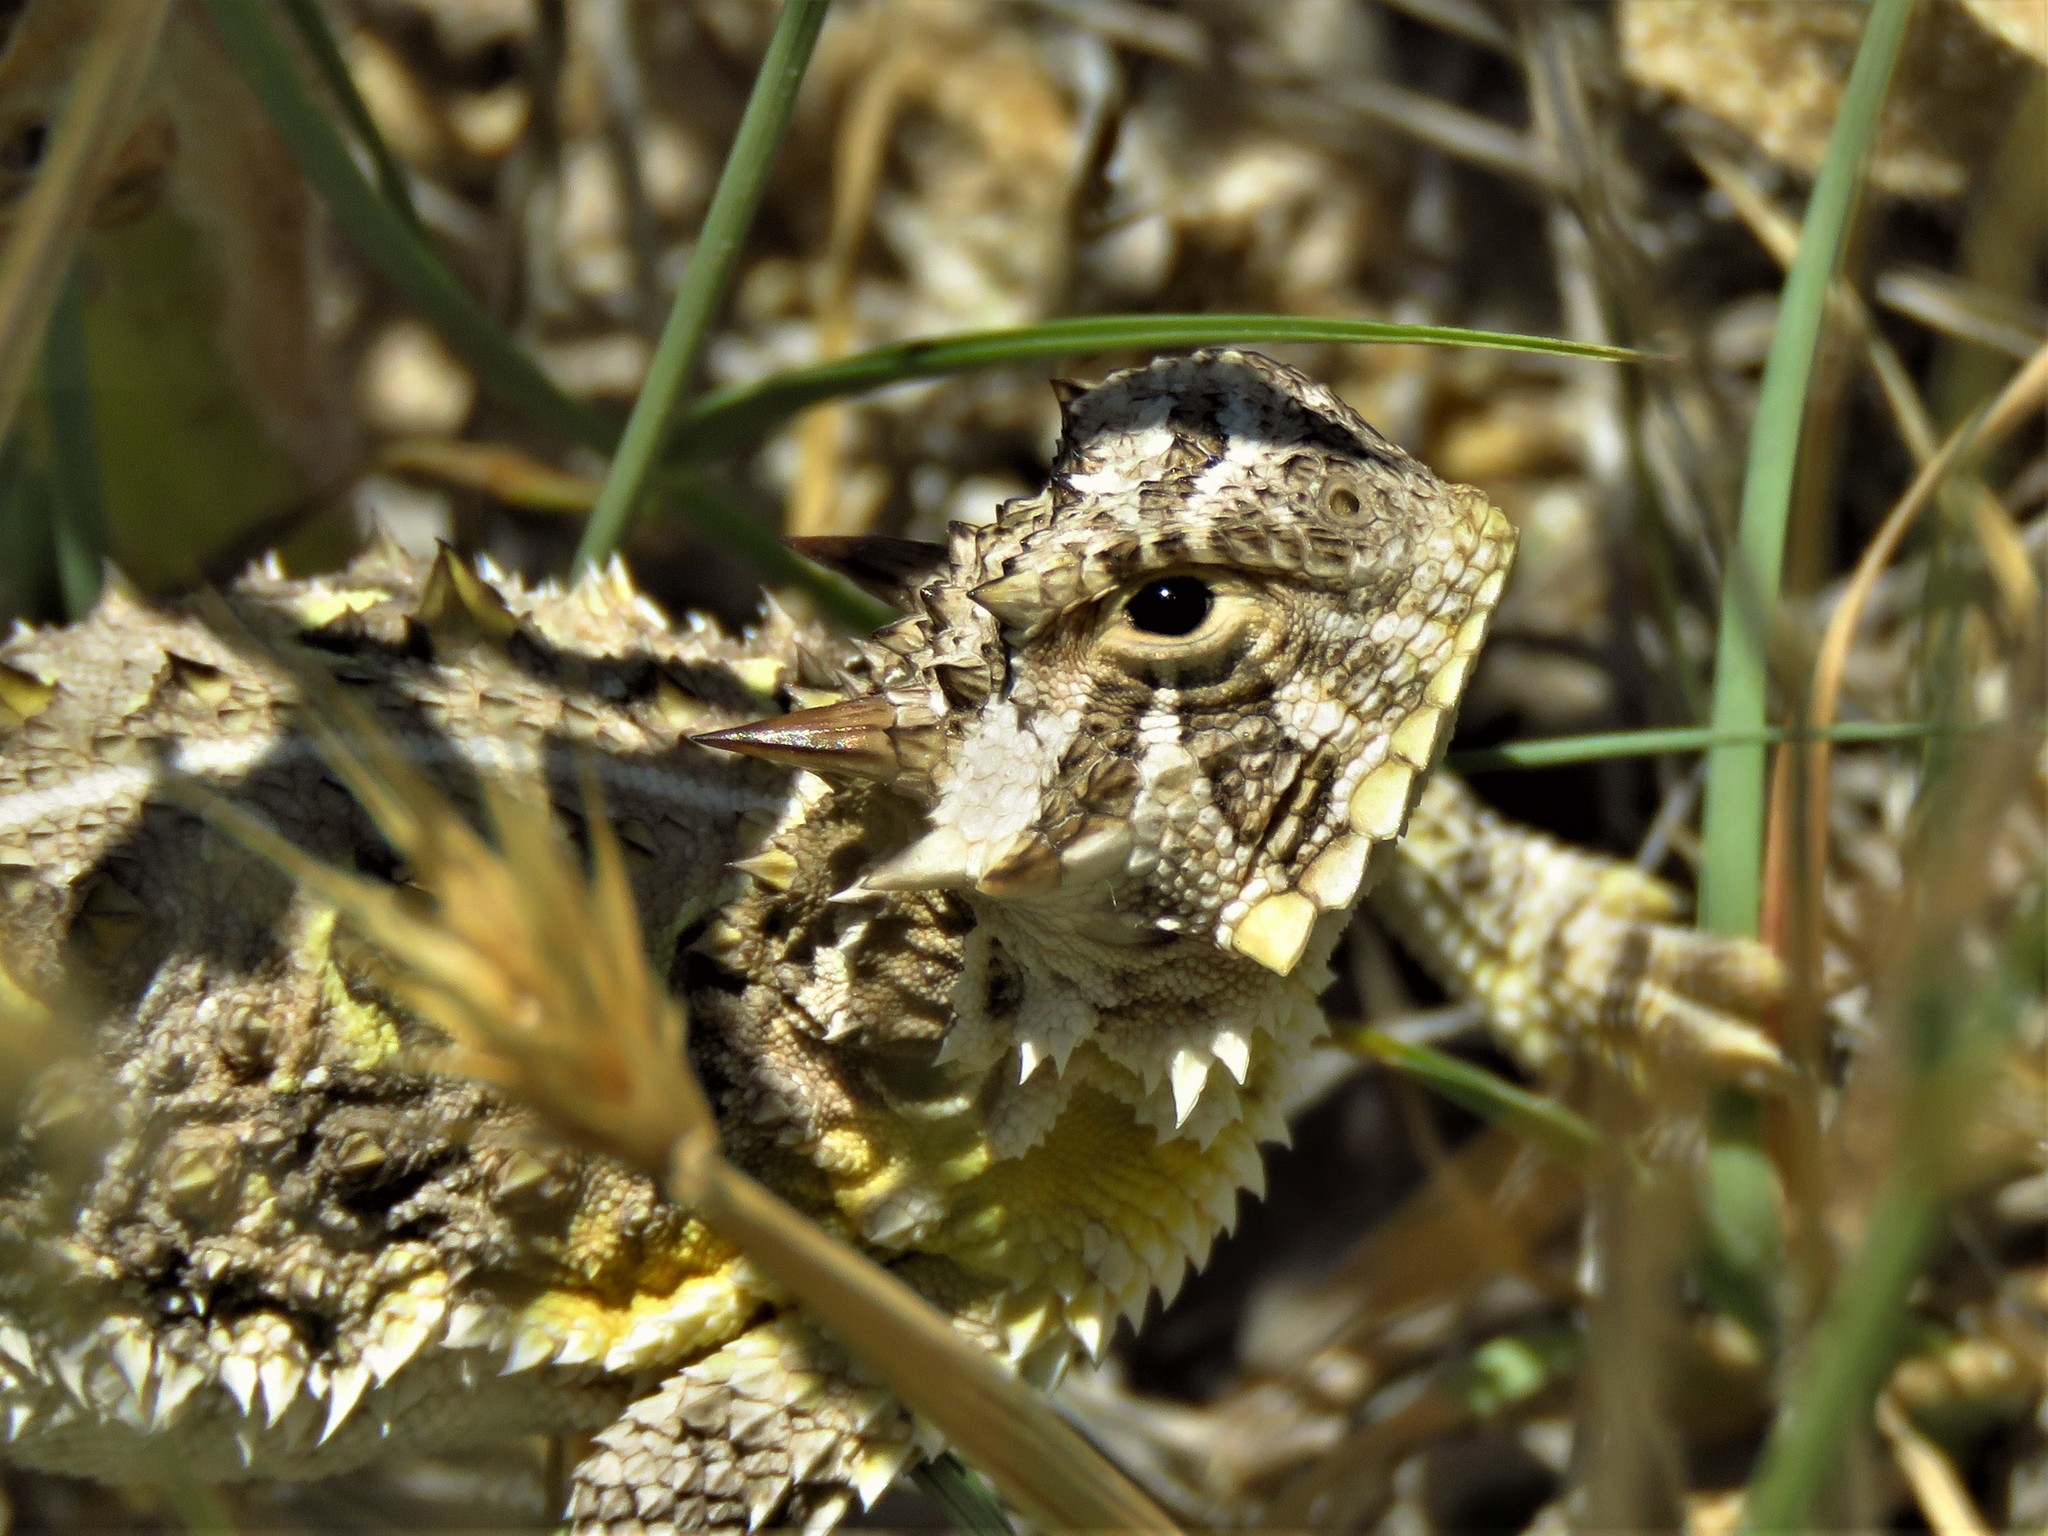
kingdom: Animalia
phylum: Chordata
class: Squamata
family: Phrynosomatidae
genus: Phrynosoma
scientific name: Phrynosoma cornutum
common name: Texas horned lizard
